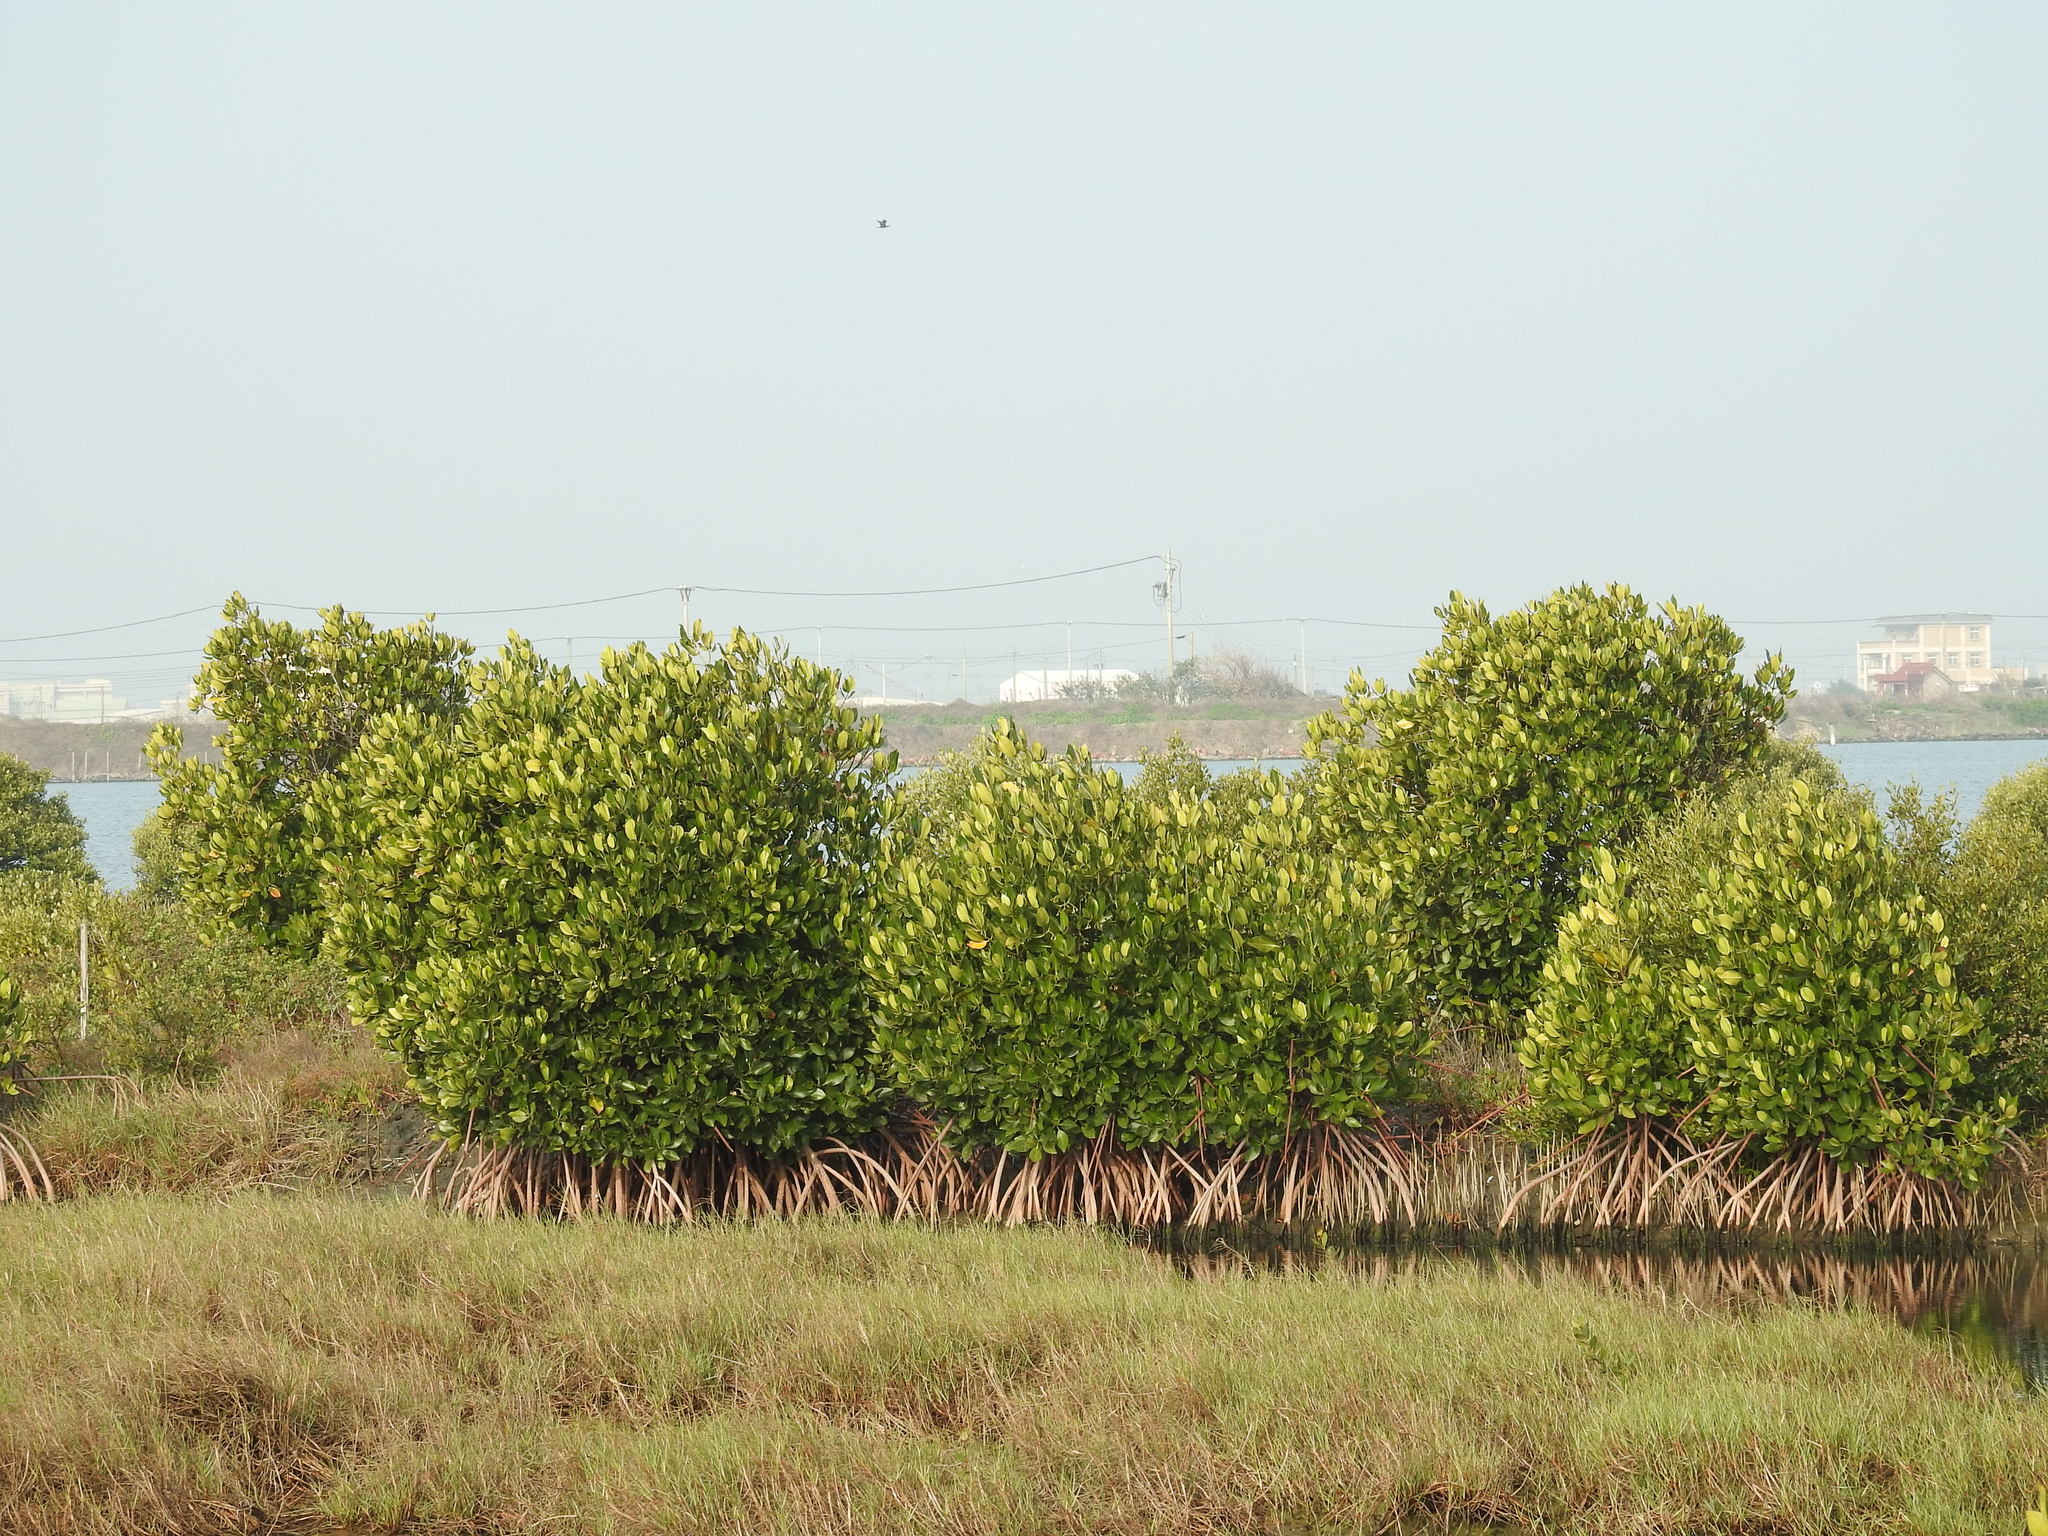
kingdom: Plantae
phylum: Tracheophyta
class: Magnoliopsida
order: Malpighiales
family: Rhizophoraceae
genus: Rhizophora
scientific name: Rhizophora stylosa
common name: Red mangrove
